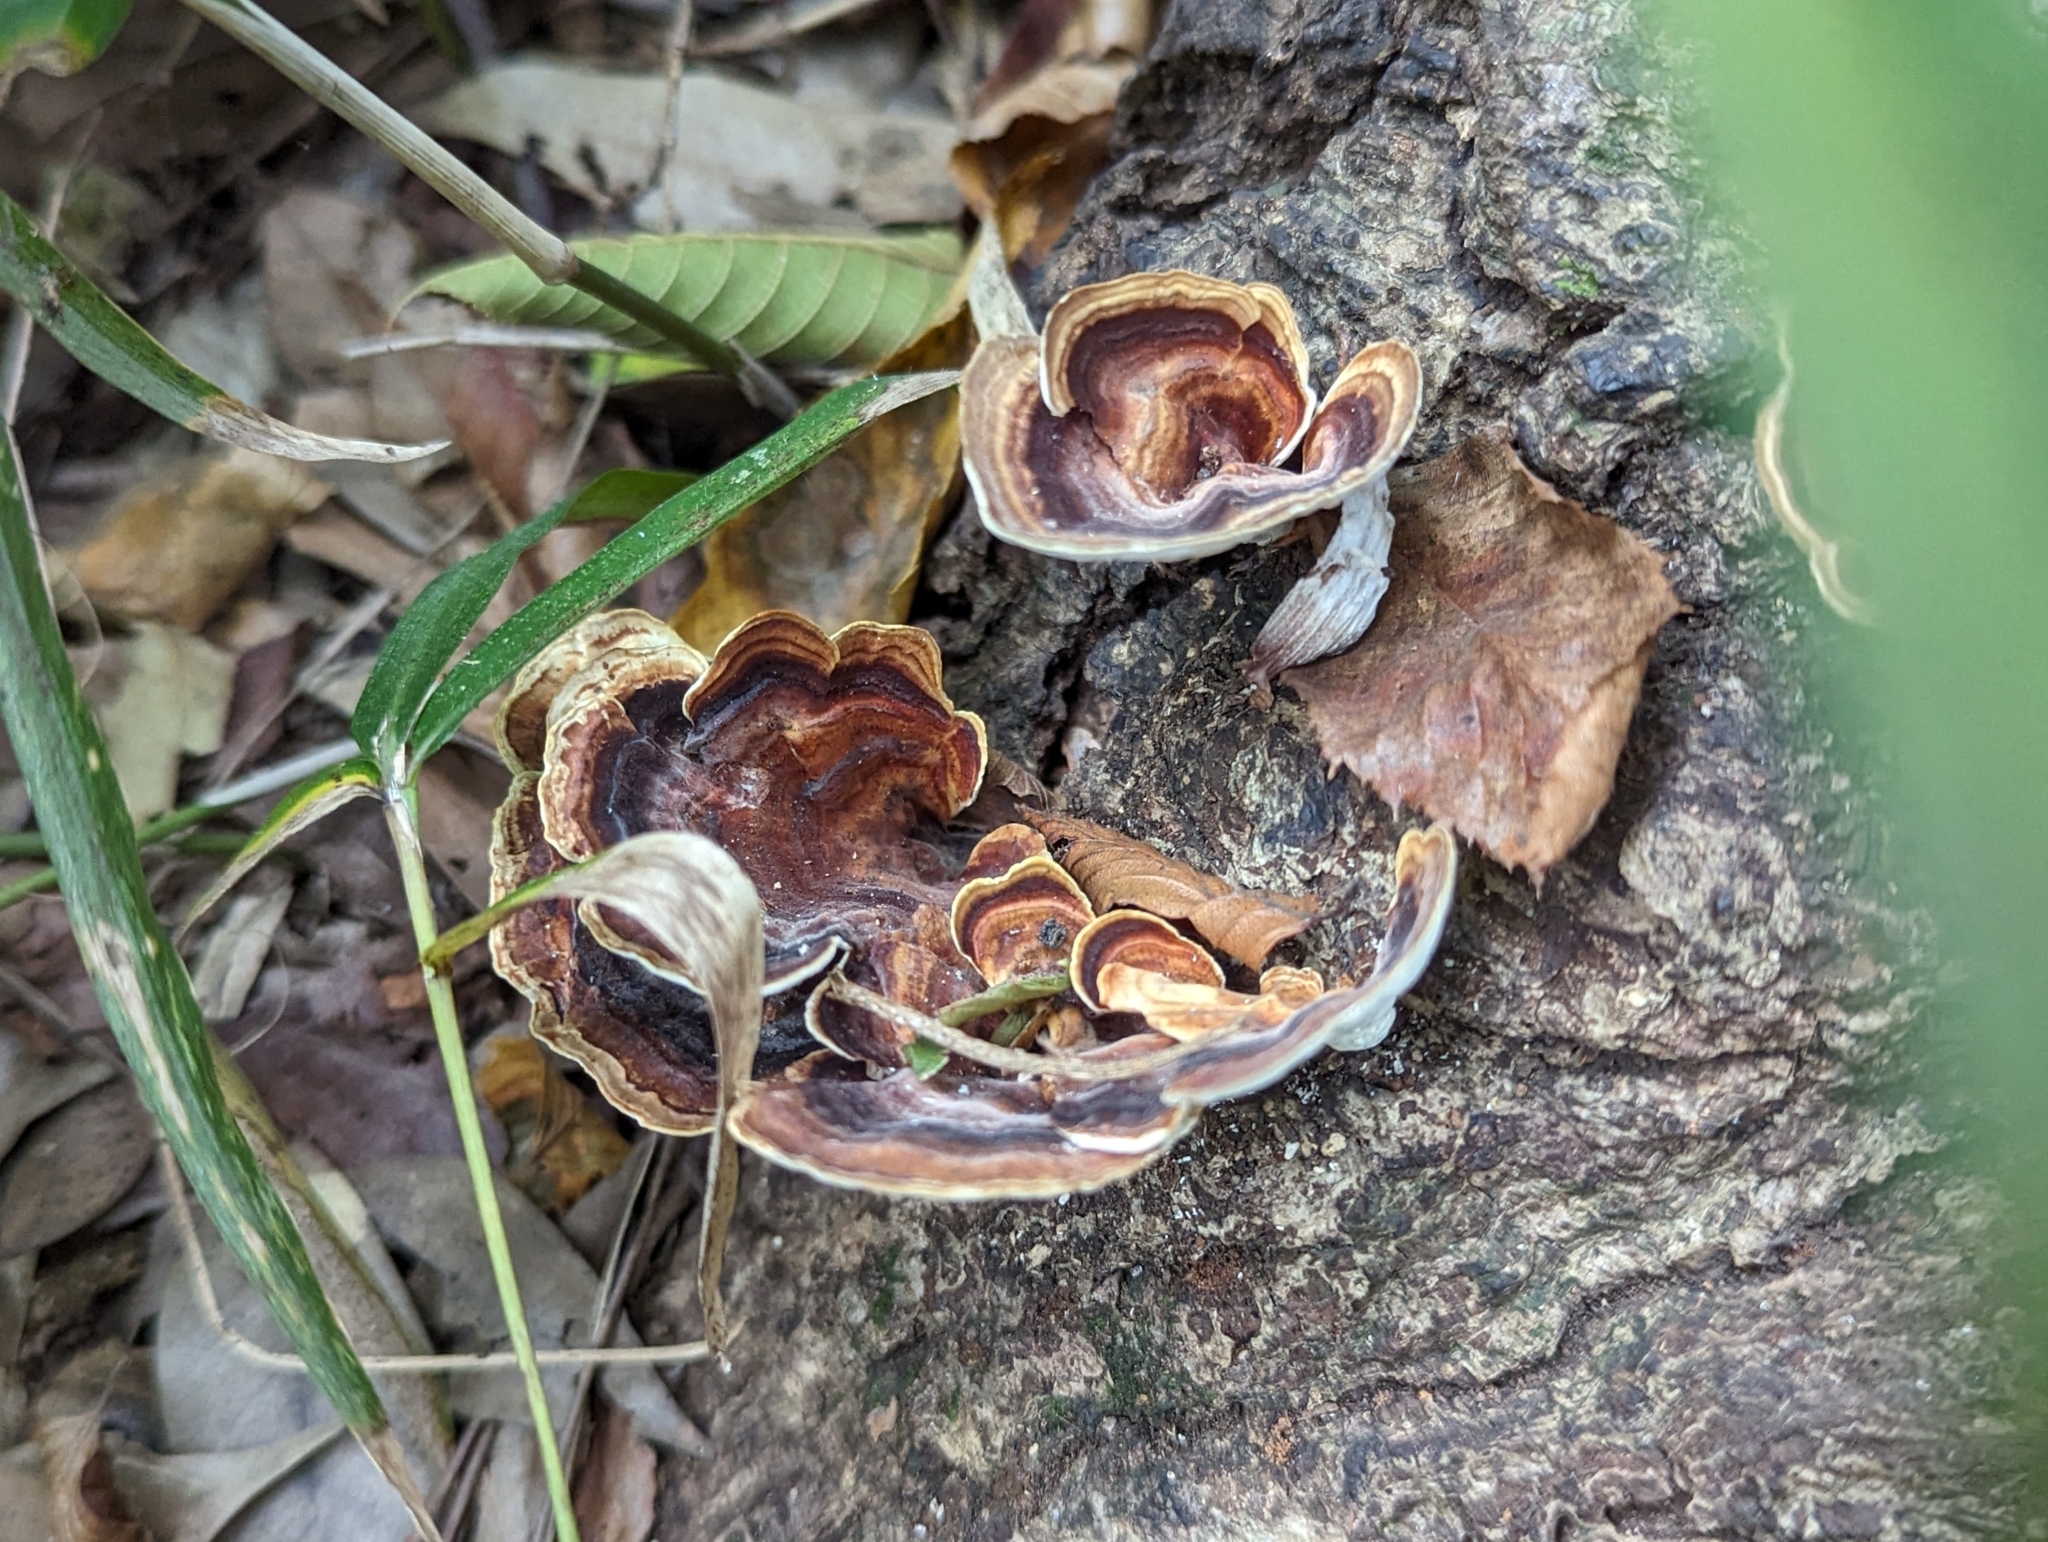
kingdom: Fungi
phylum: Basidiomycota
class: Agaricomycetes
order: Polyporales
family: Polyporaceae
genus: Microporus
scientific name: Microporus affinis
